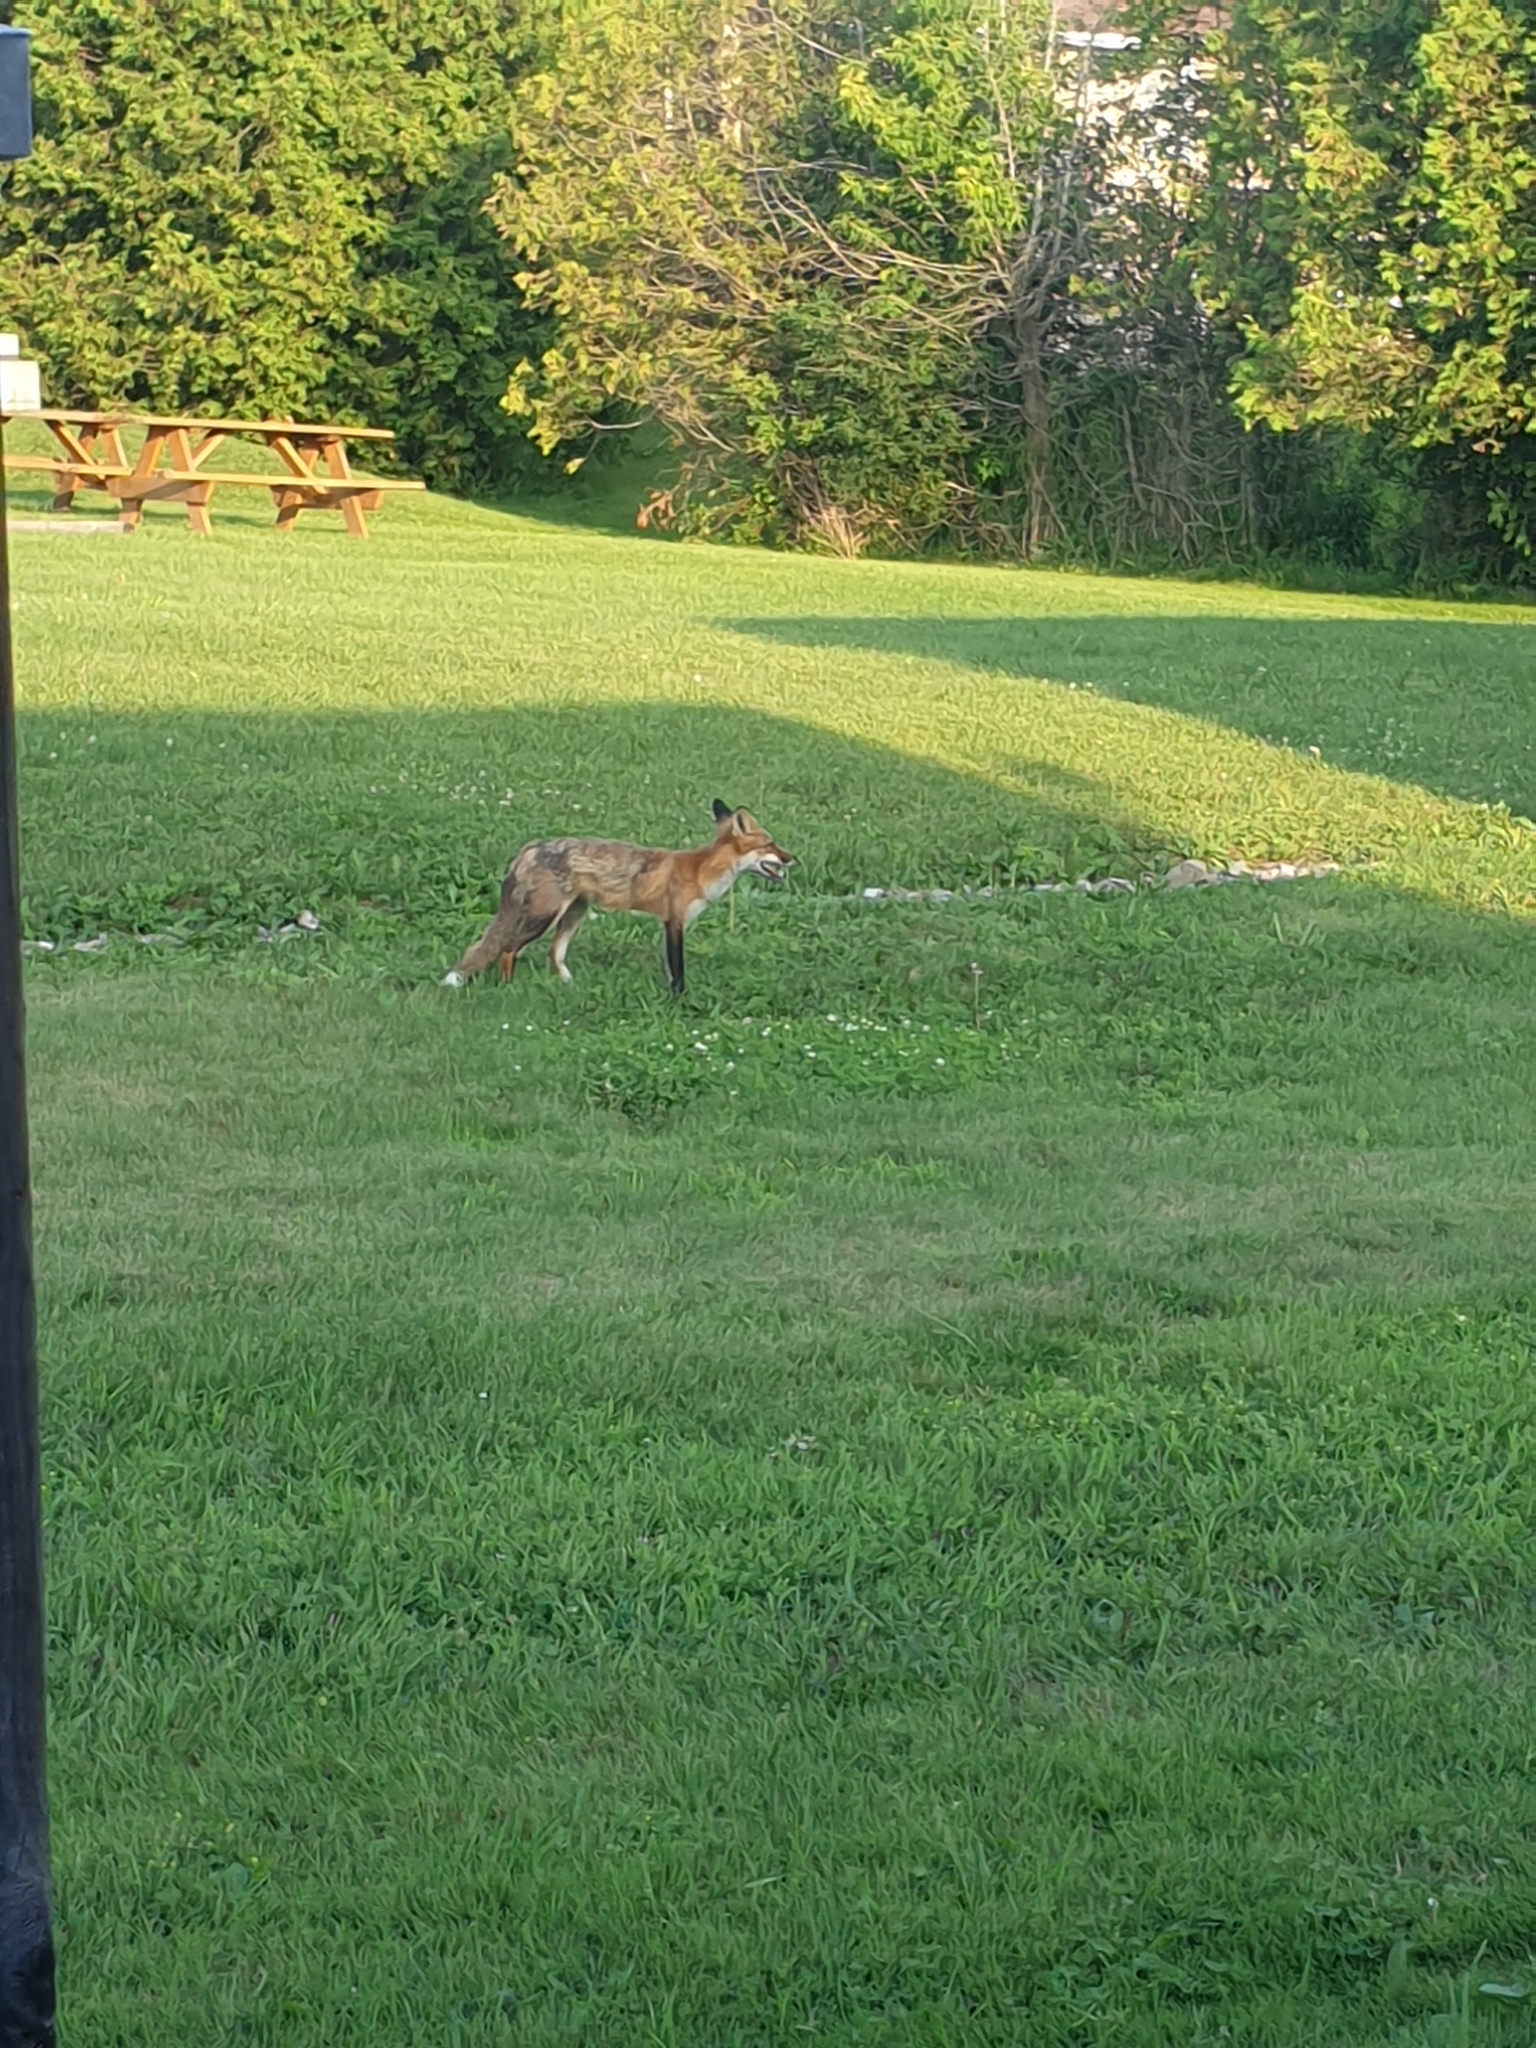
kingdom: Animalia
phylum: Chordata
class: Mammalia
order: Carnivora
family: Canidae
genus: Vulpes
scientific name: Vulpes vulpes
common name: Red fox
